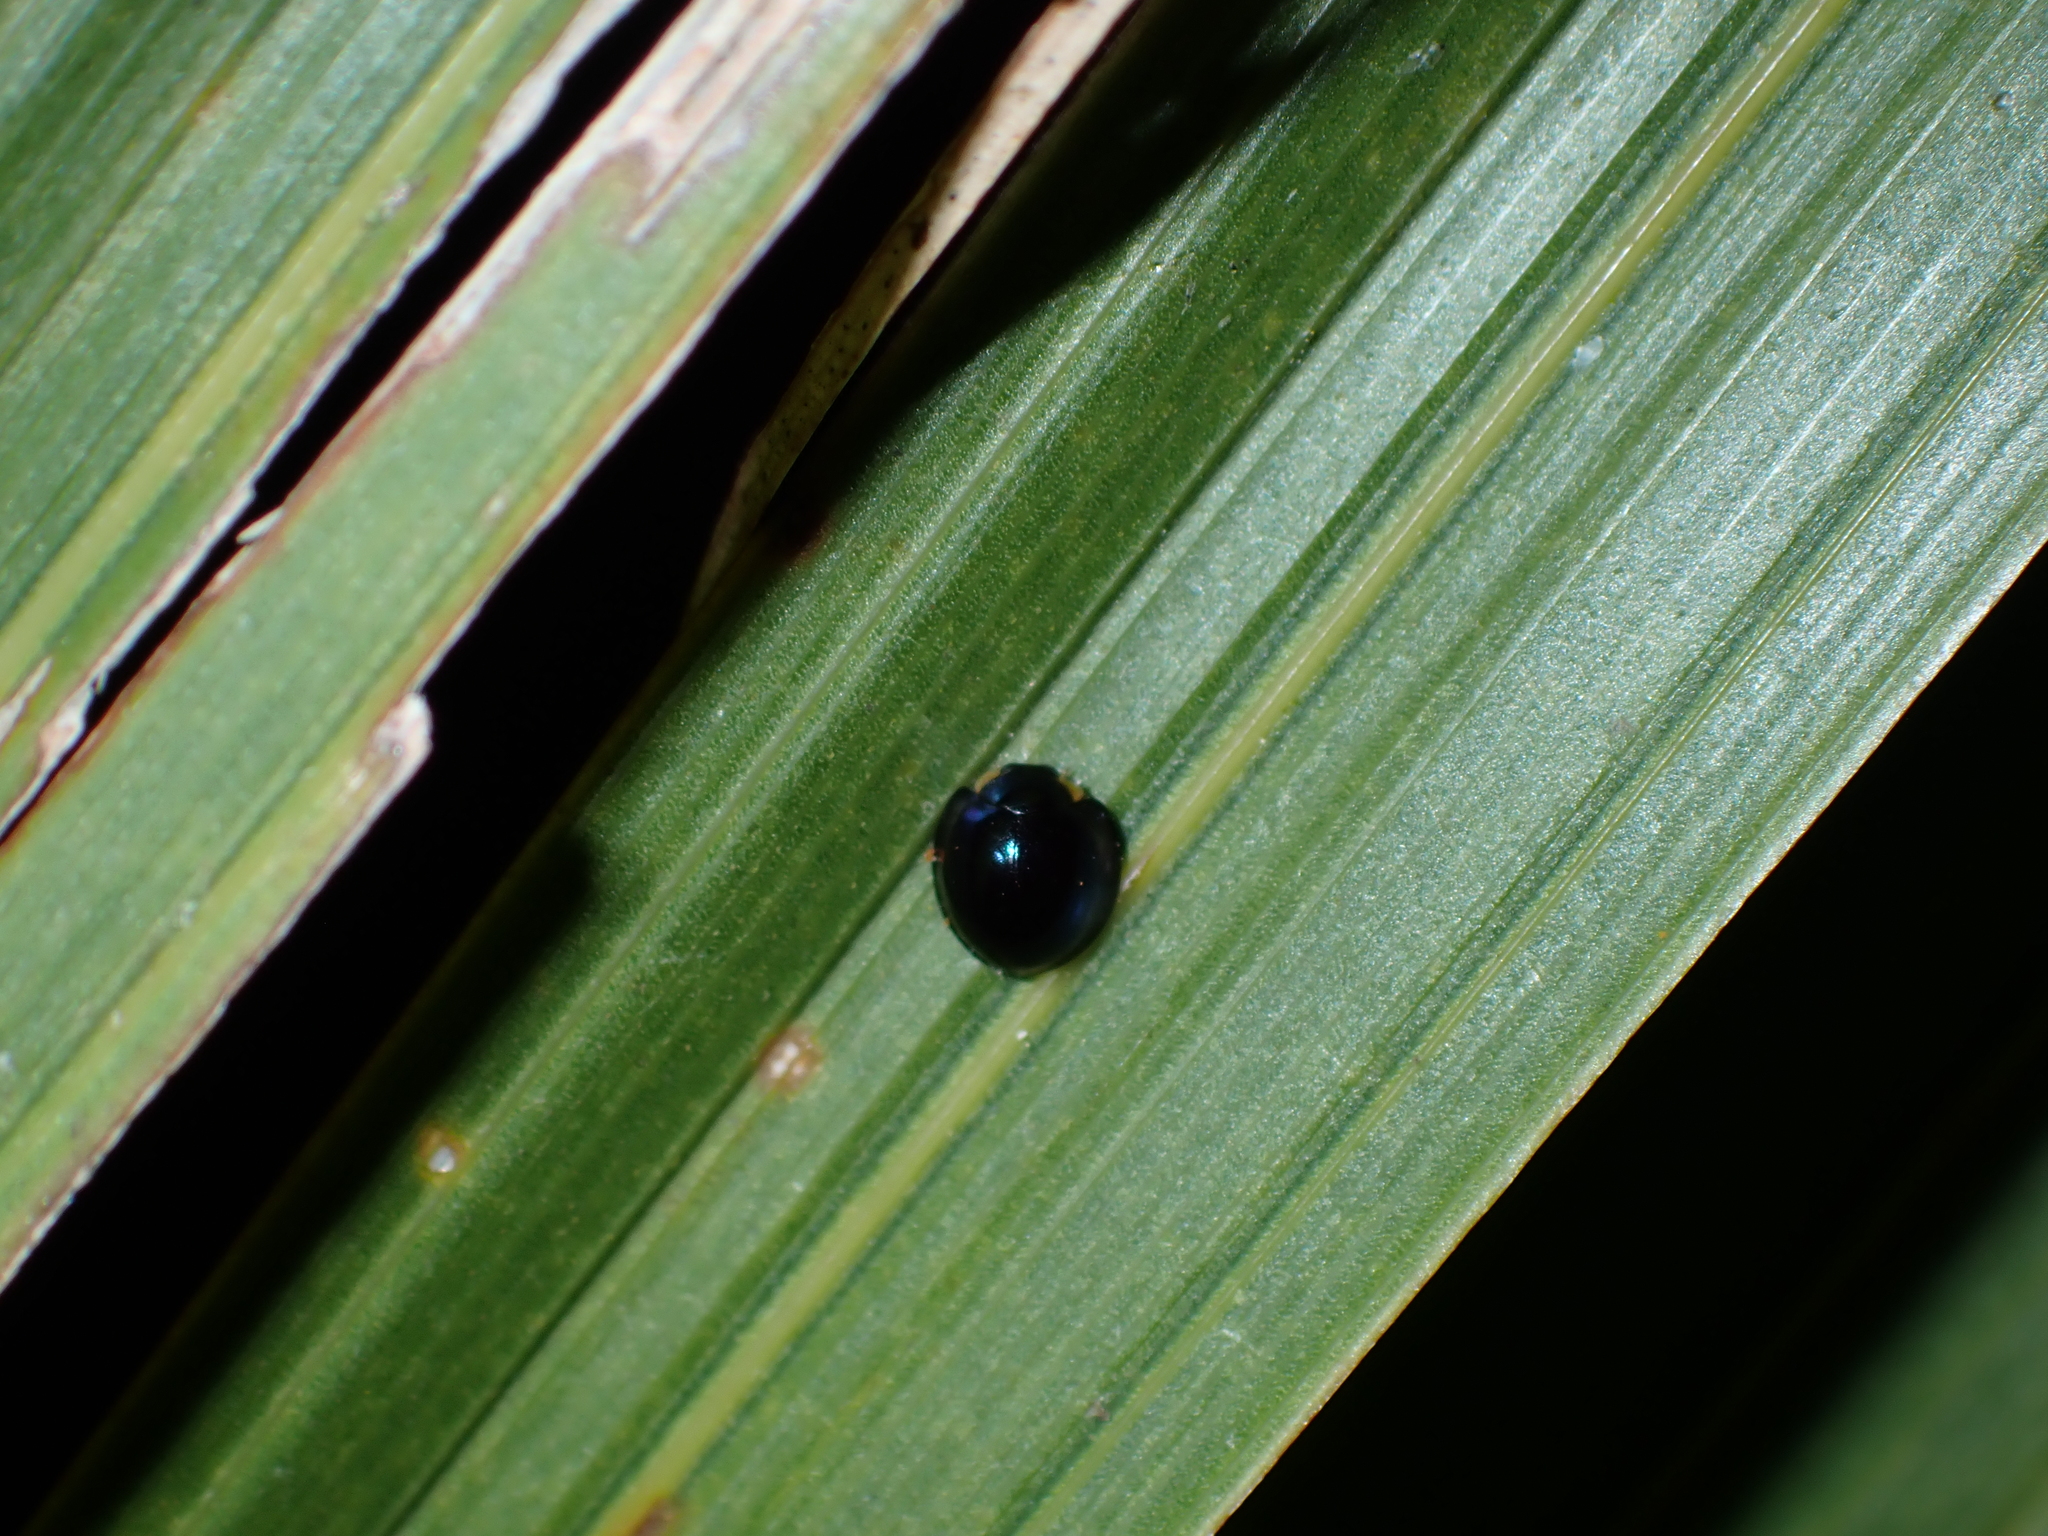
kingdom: Animalia
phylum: Arthropoda
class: Insecta
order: Coleoptera
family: Coccinellidae
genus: Halmus
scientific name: Halmus chalybeus
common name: Steel blue ladybird beetle
